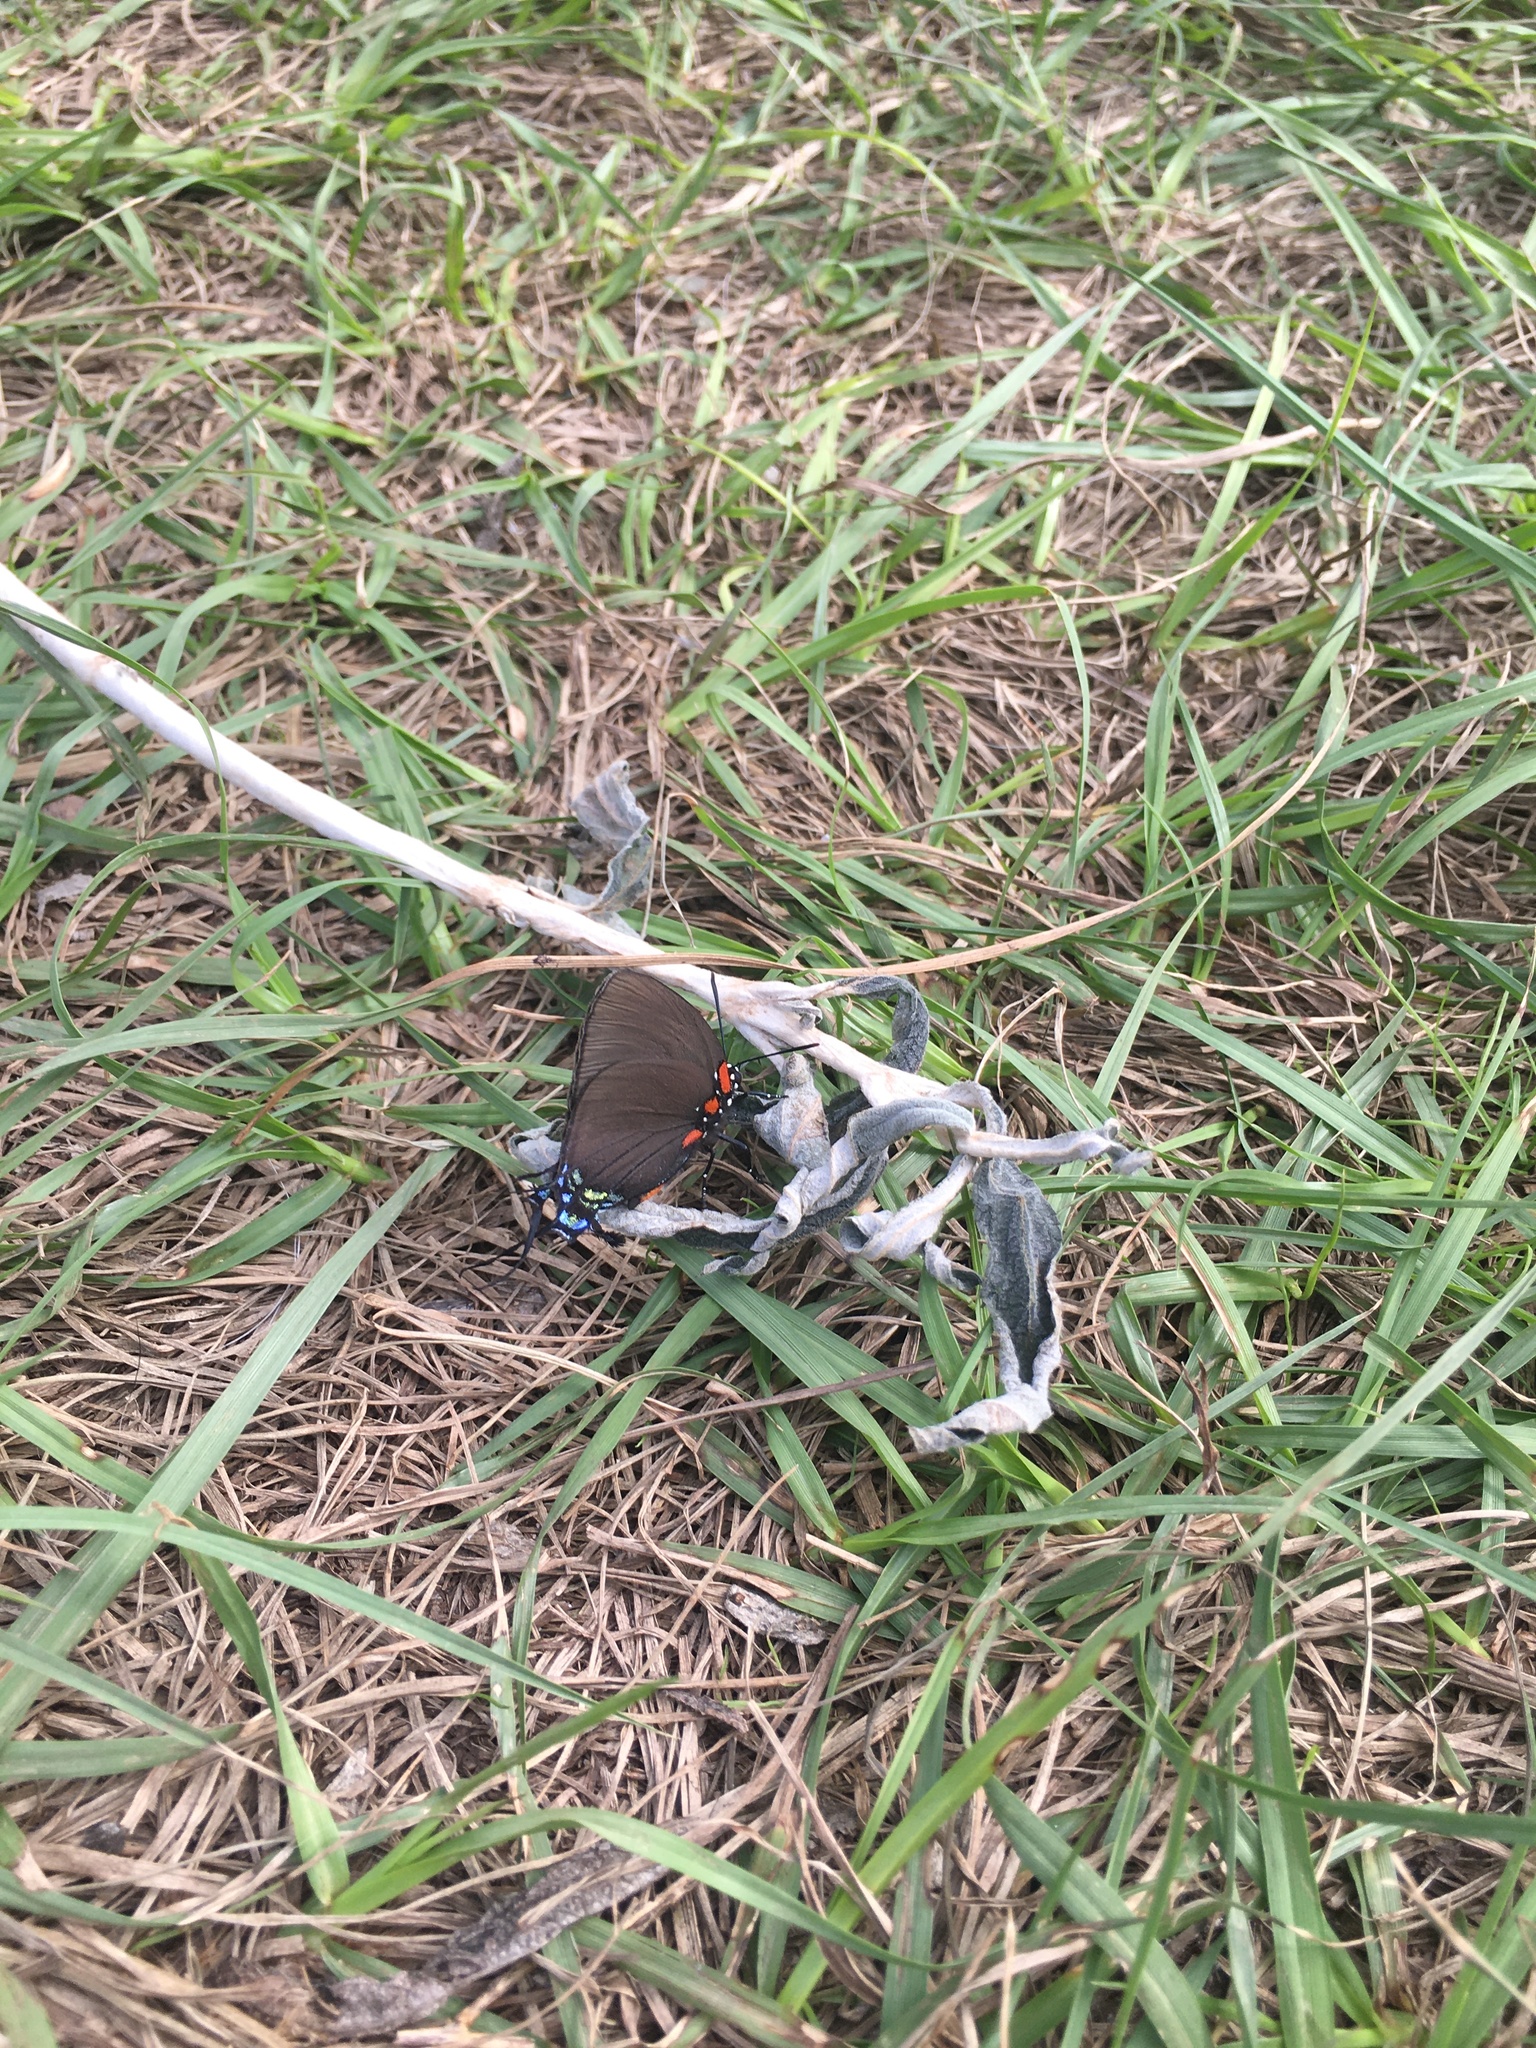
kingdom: Animalia
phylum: Arthropoda
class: Insecta
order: Lepidoptera
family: Lycaenidae
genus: Atlides
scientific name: Atlides halesus
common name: Great purple hairstreak
